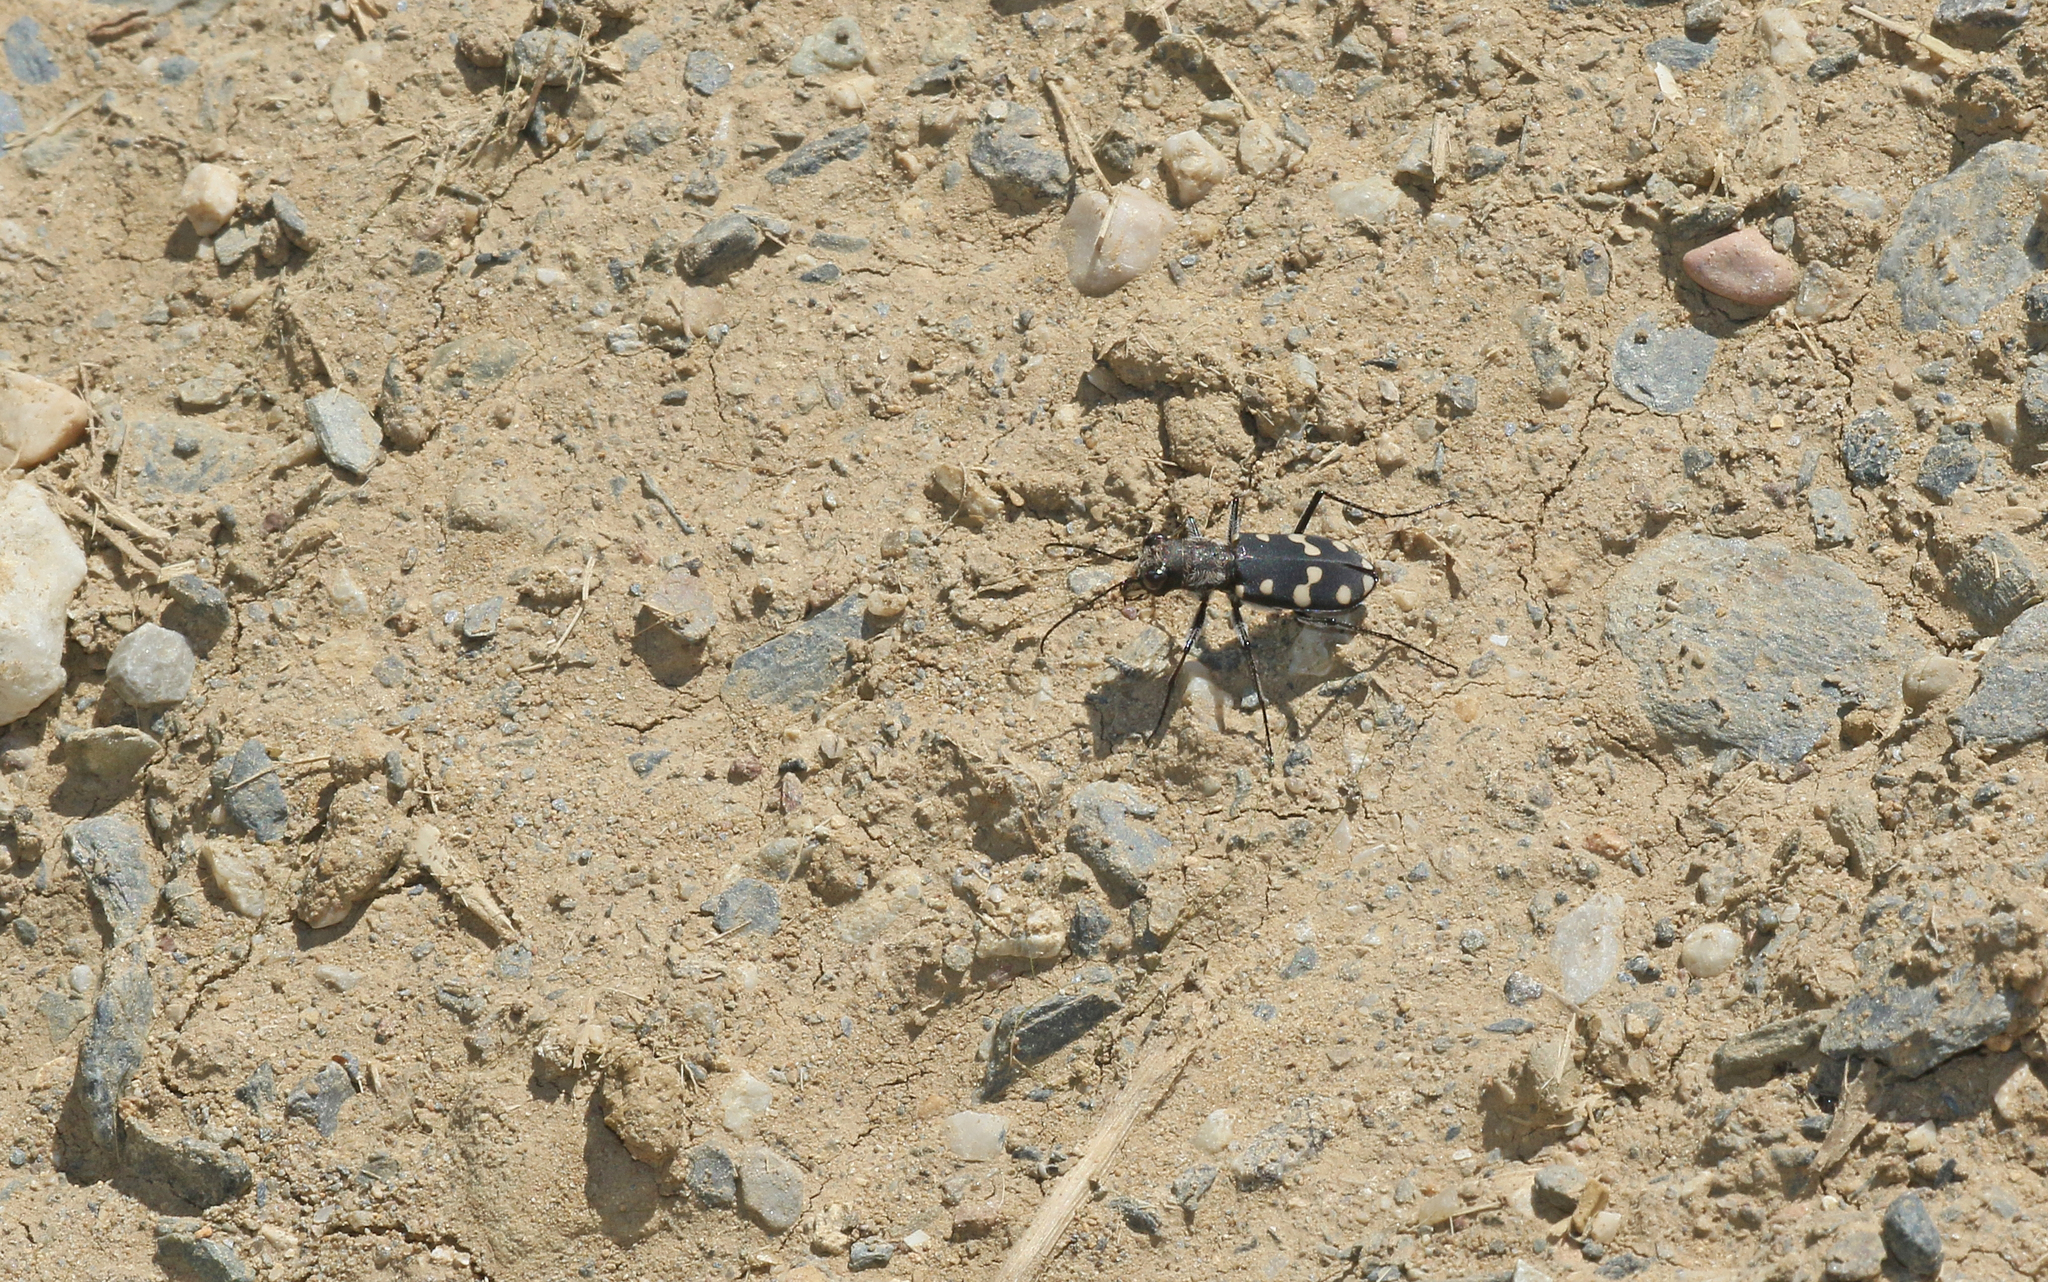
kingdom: Animalia
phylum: Arthropoda
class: Insecta
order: Coleoptera
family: Carabidae
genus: Cephalota
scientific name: Cephalota maura
